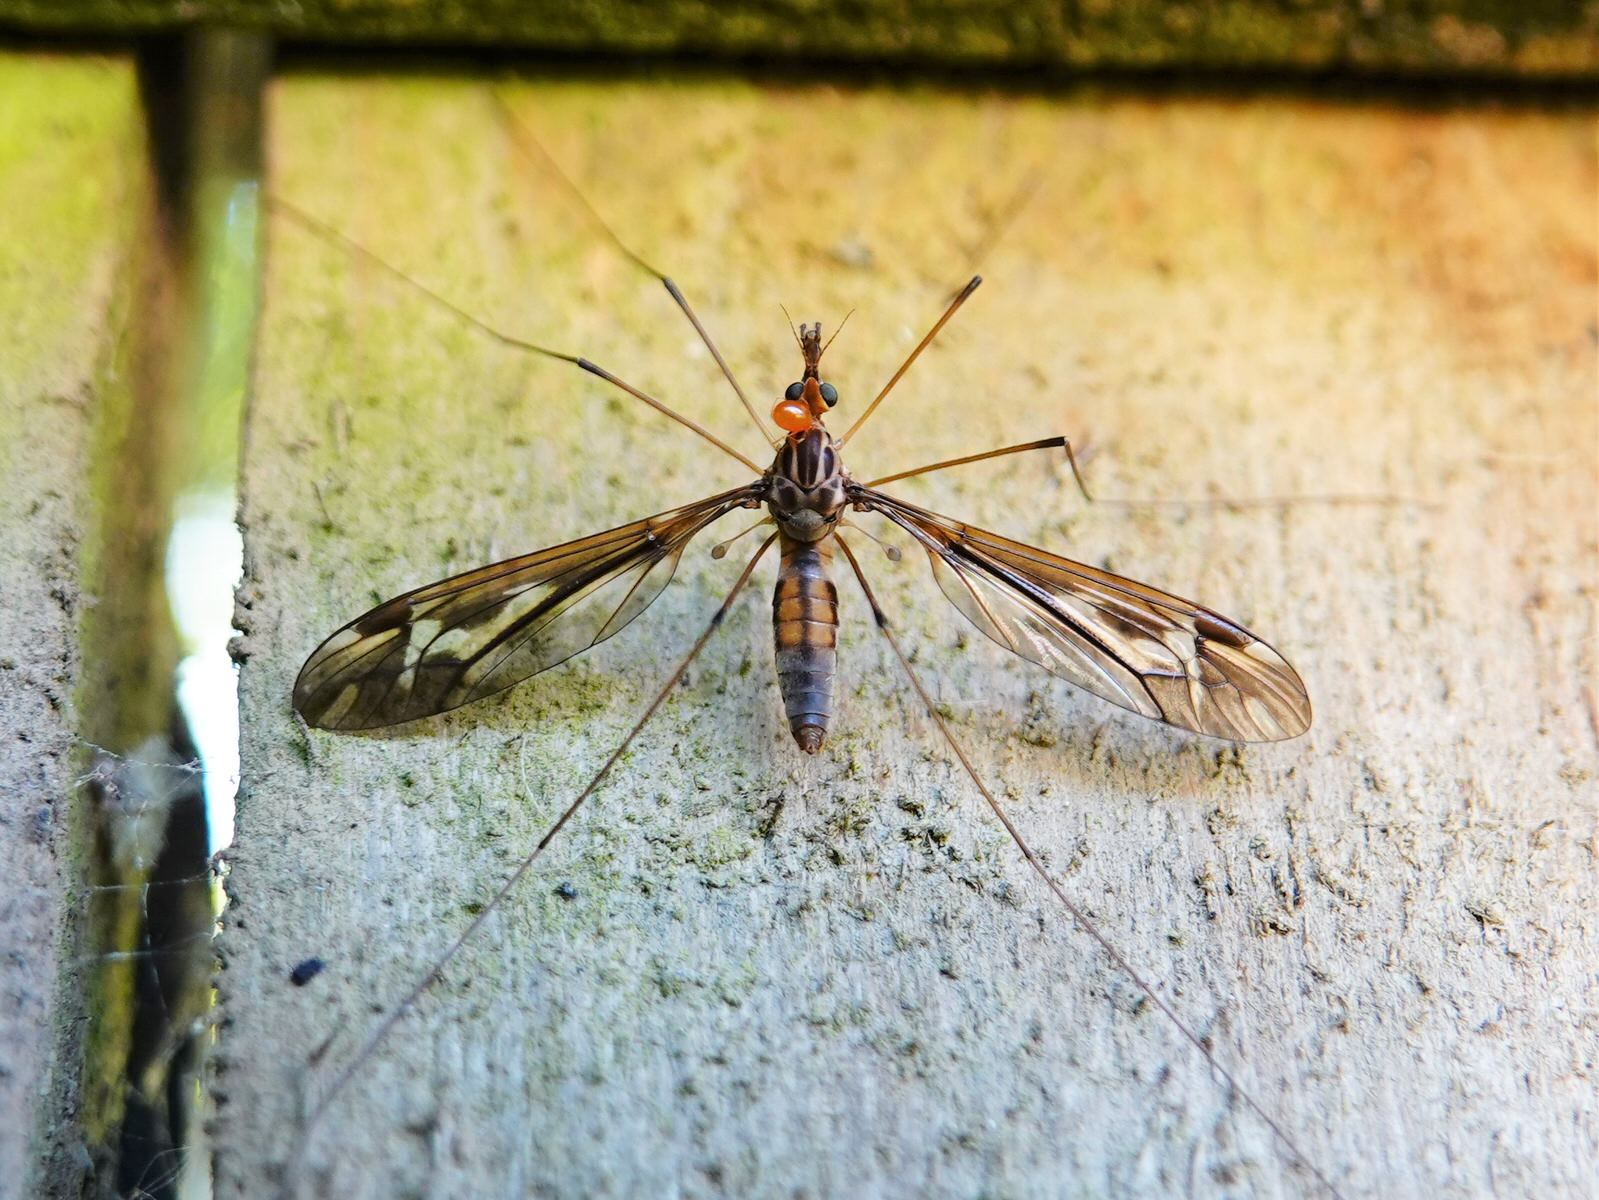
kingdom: Animalia
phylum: Arthropoda
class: Insecta
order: Diptera
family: Tipulidae
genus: Leptotarsus
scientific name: Leptotarsus huttoni
